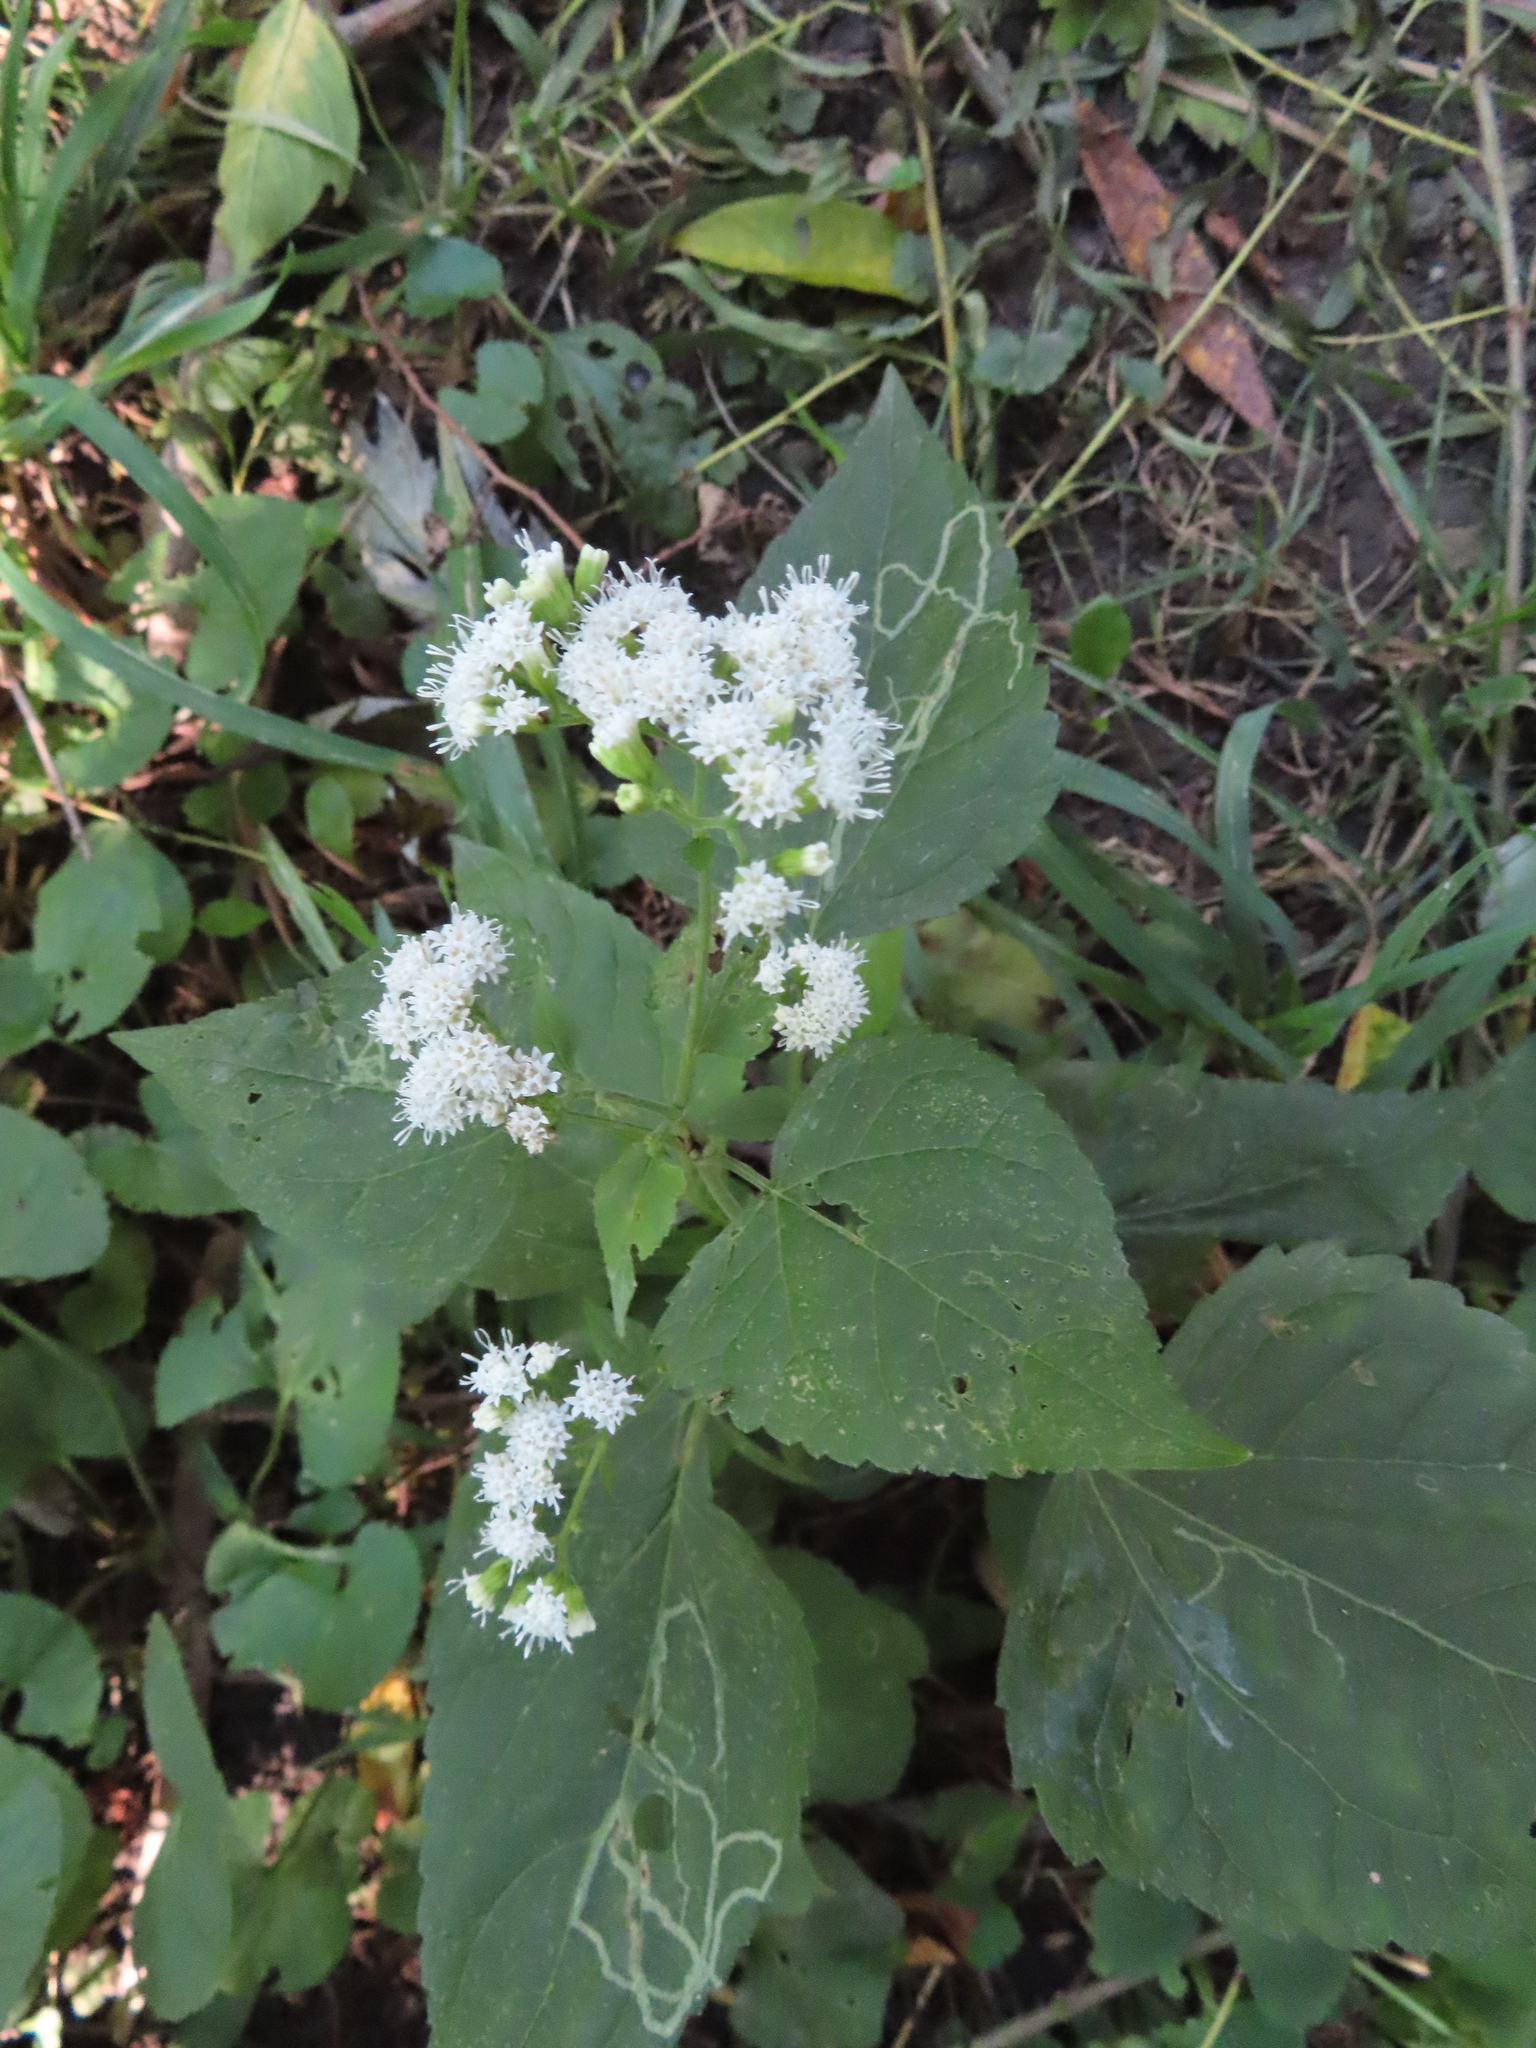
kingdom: Plantae
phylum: Tracheophyta
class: Magnoliopsida
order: Asterales
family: Asteraceae
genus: Ageratina
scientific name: Ageratina altissima
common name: White snakeroot
